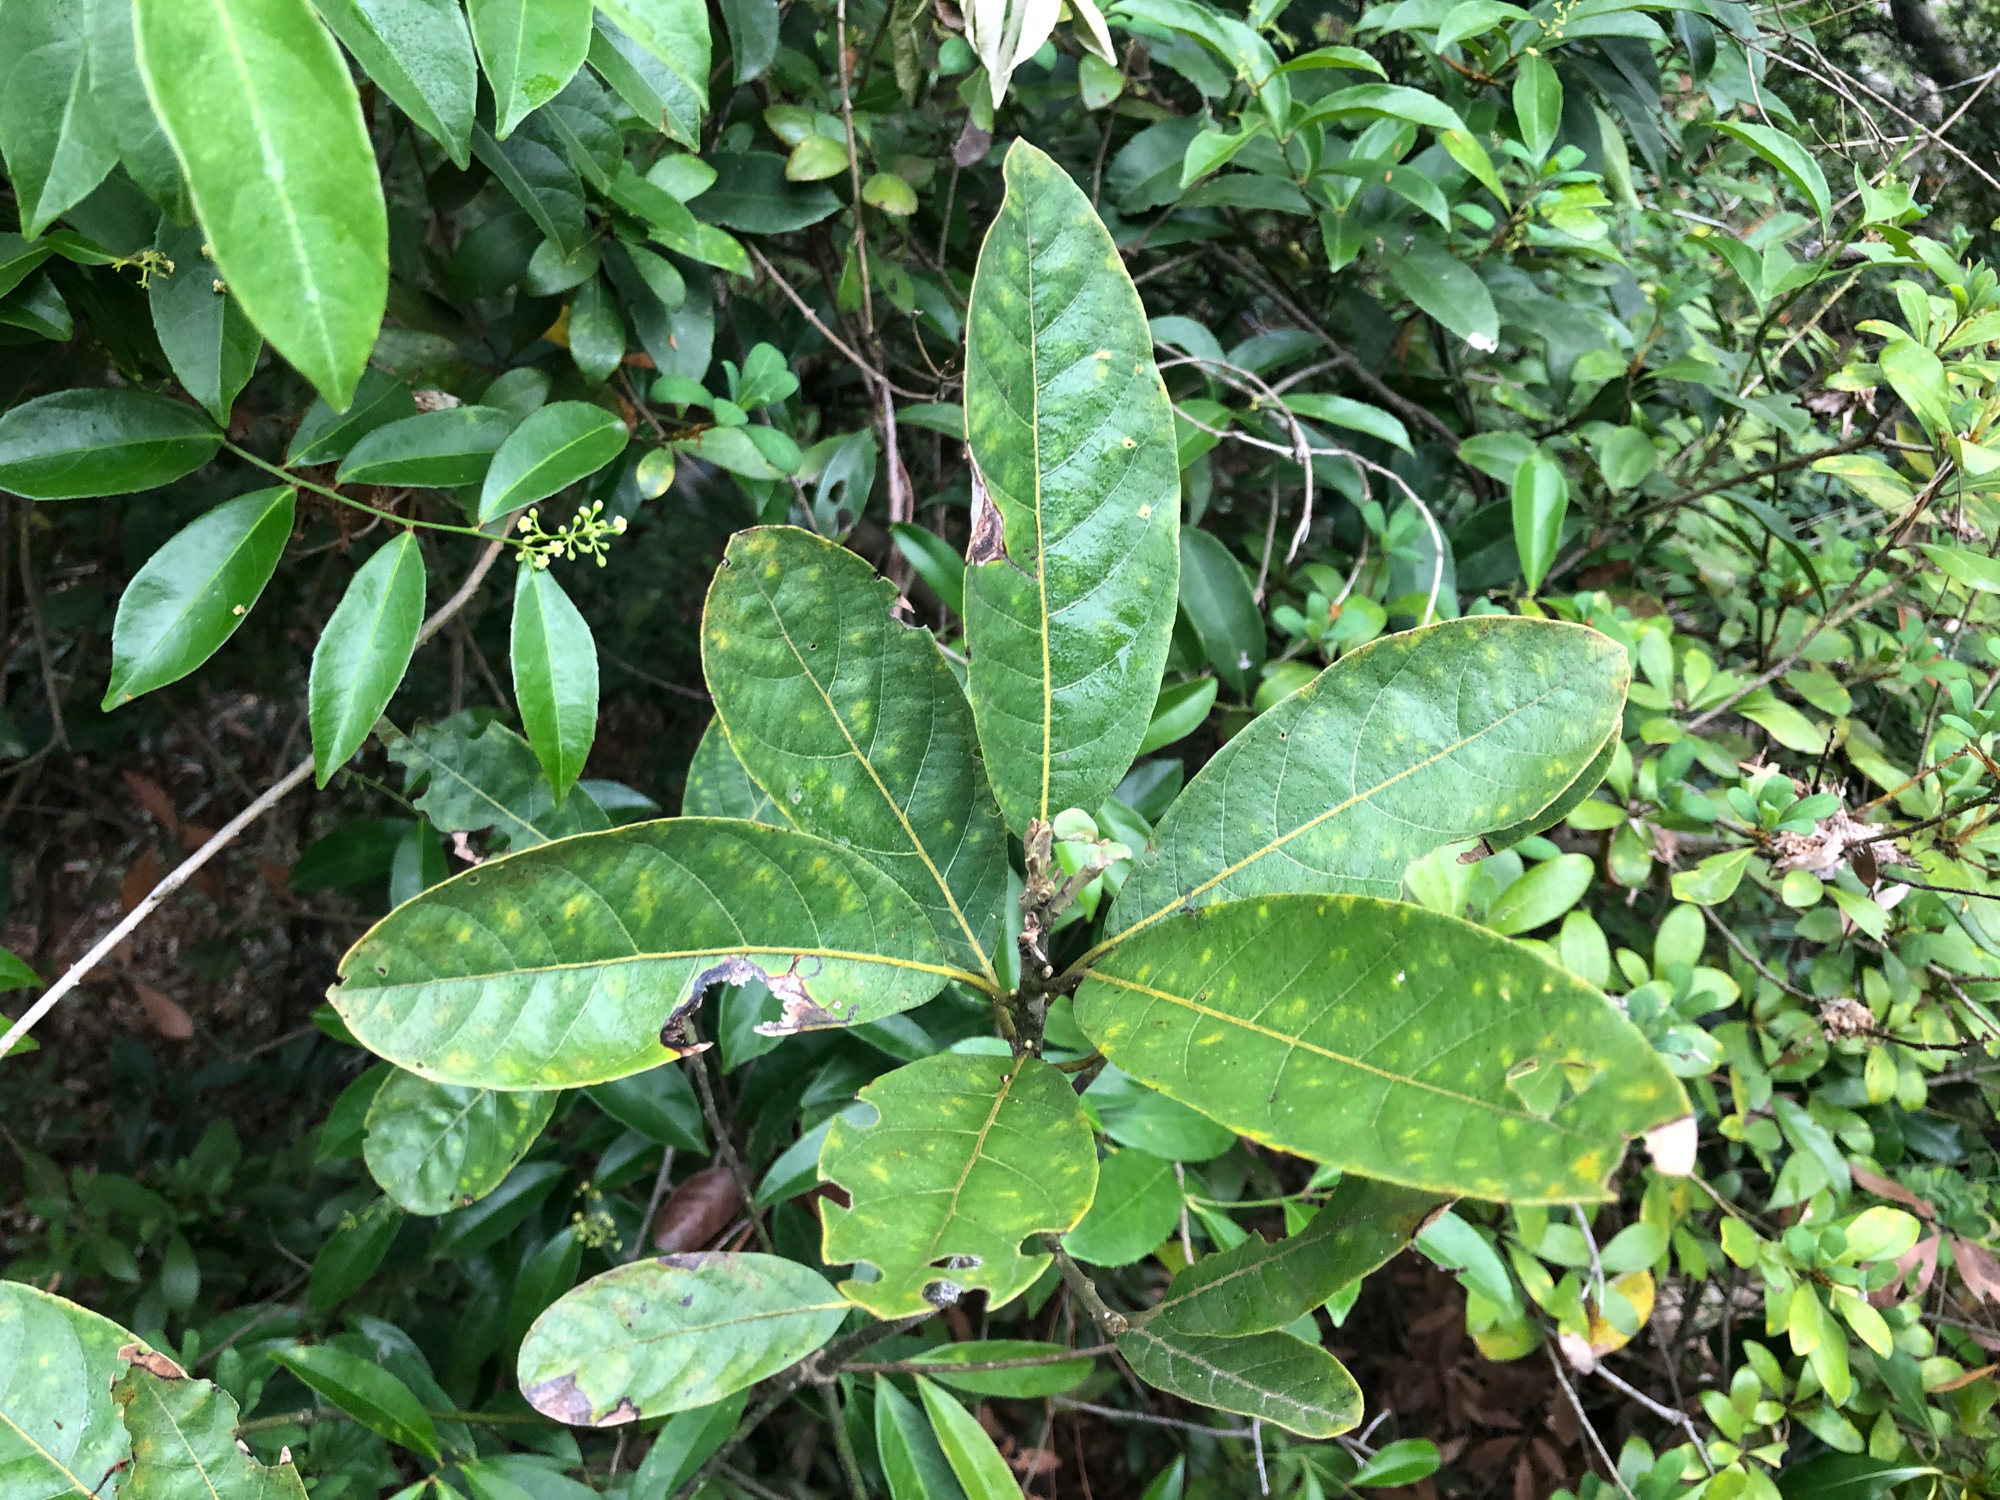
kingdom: Plantae
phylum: Tracheophyta
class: Magnoliopsida
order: Laurales
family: Lauraceae
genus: Litsea
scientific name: Litsea glutinosa
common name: Indian-laurel
